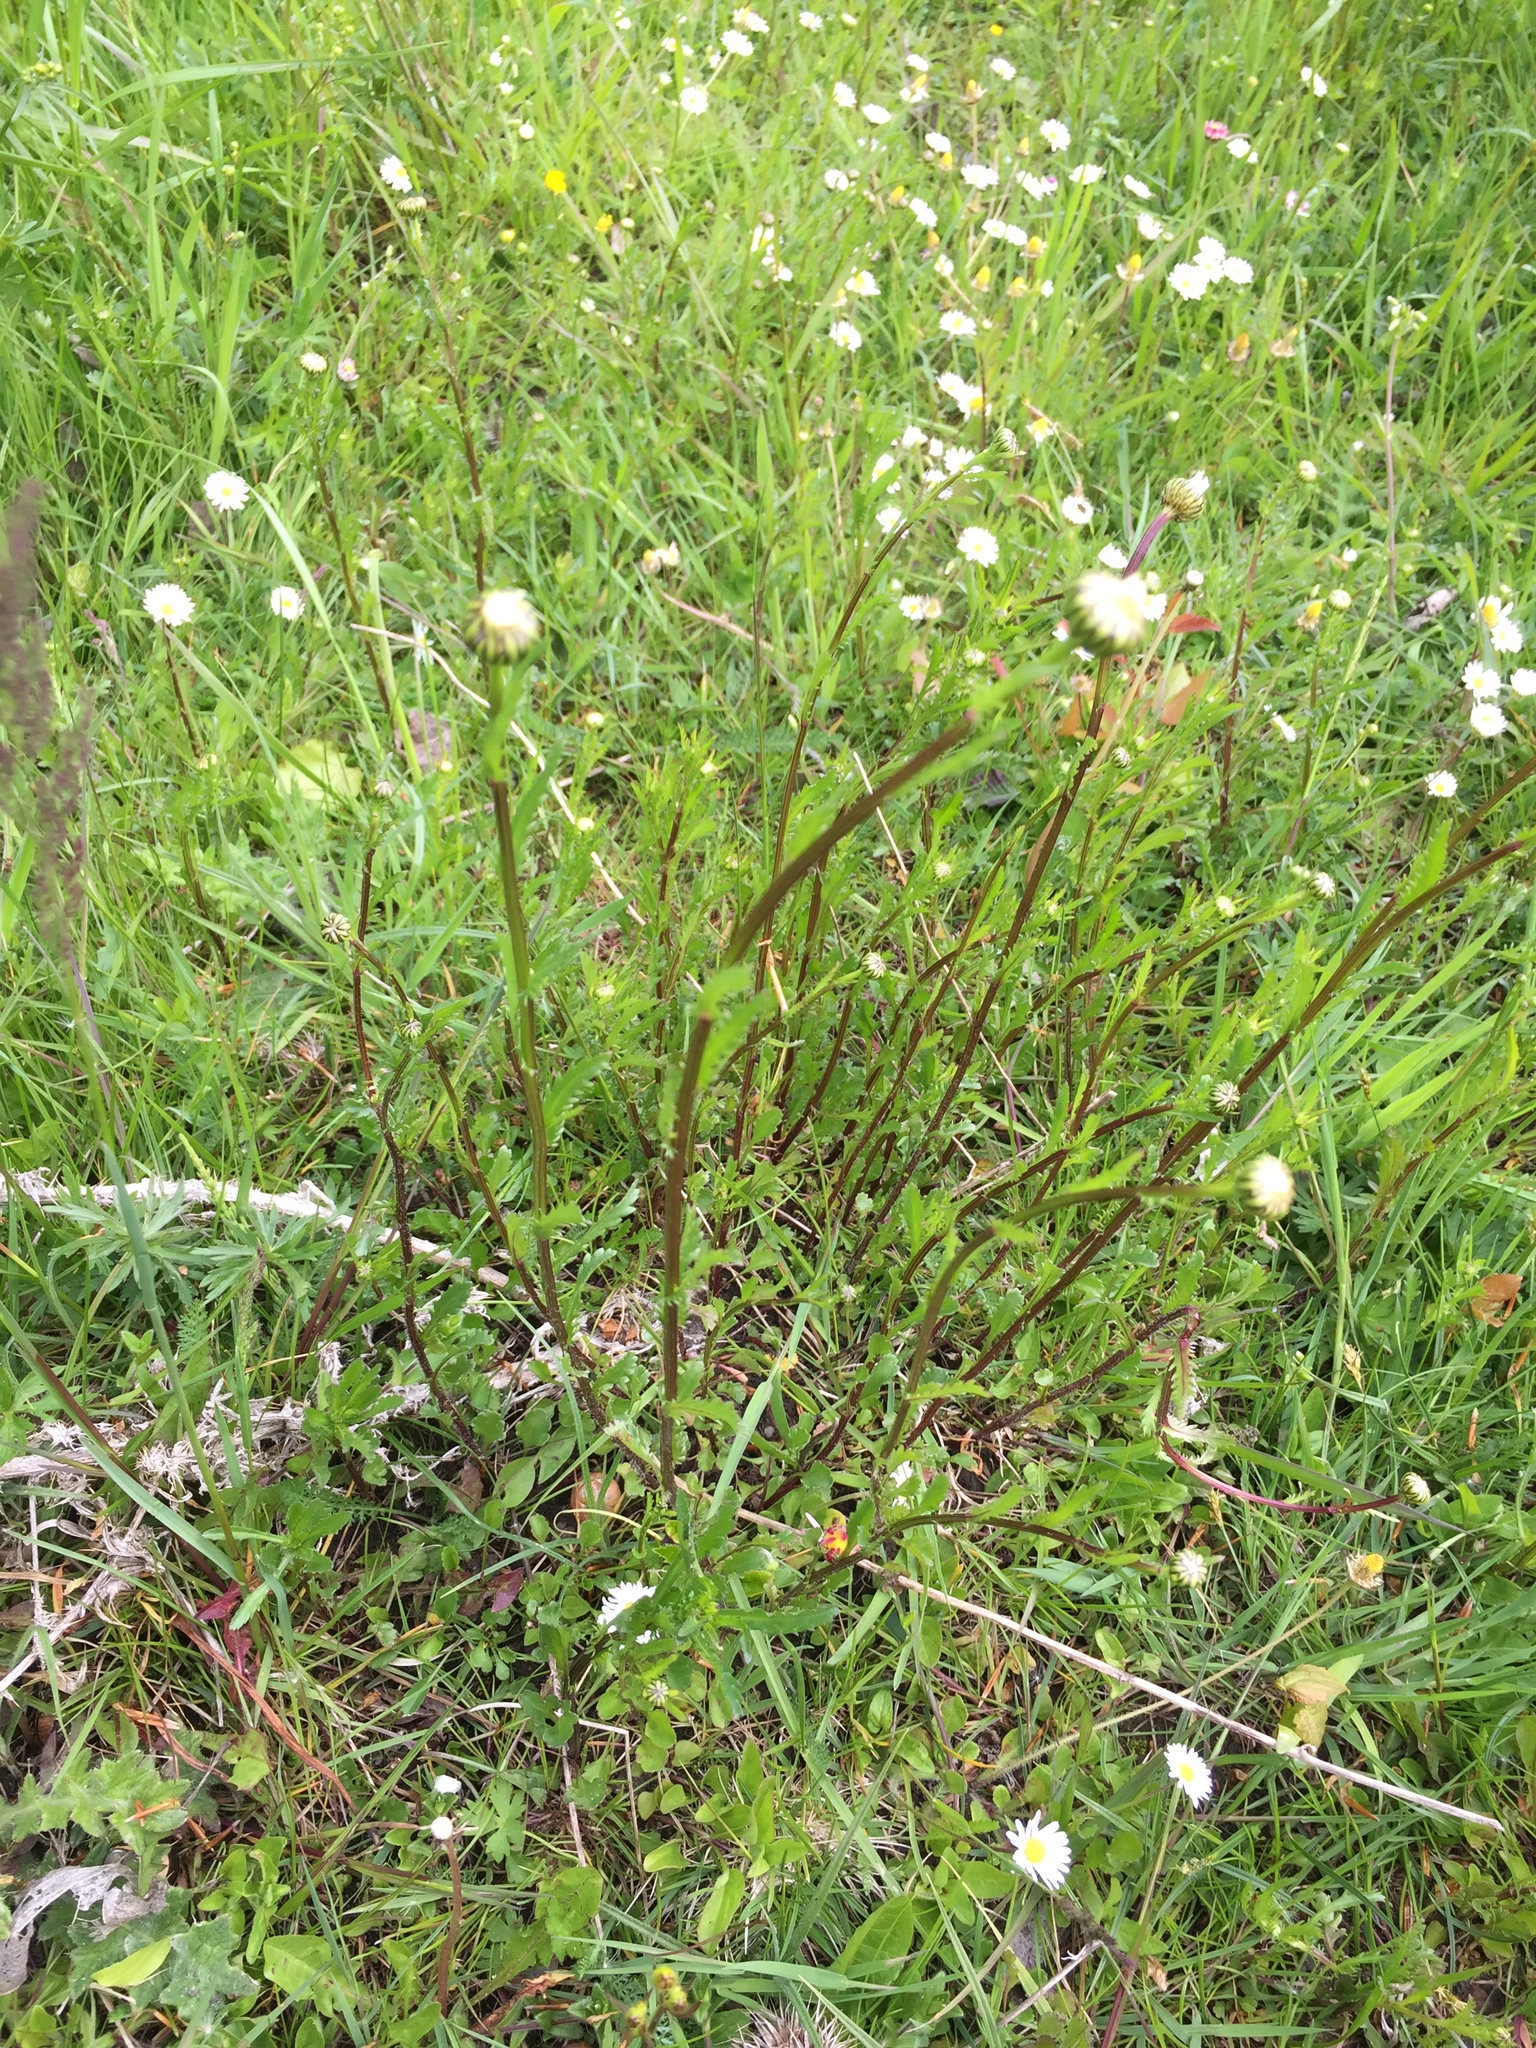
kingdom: Plantae
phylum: Tracheophyta
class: Magnoliopsida
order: Asterales
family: Asteraceae
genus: Leucanthemum
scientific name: Leucanthemum vulgare
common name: Oxeye daisy
